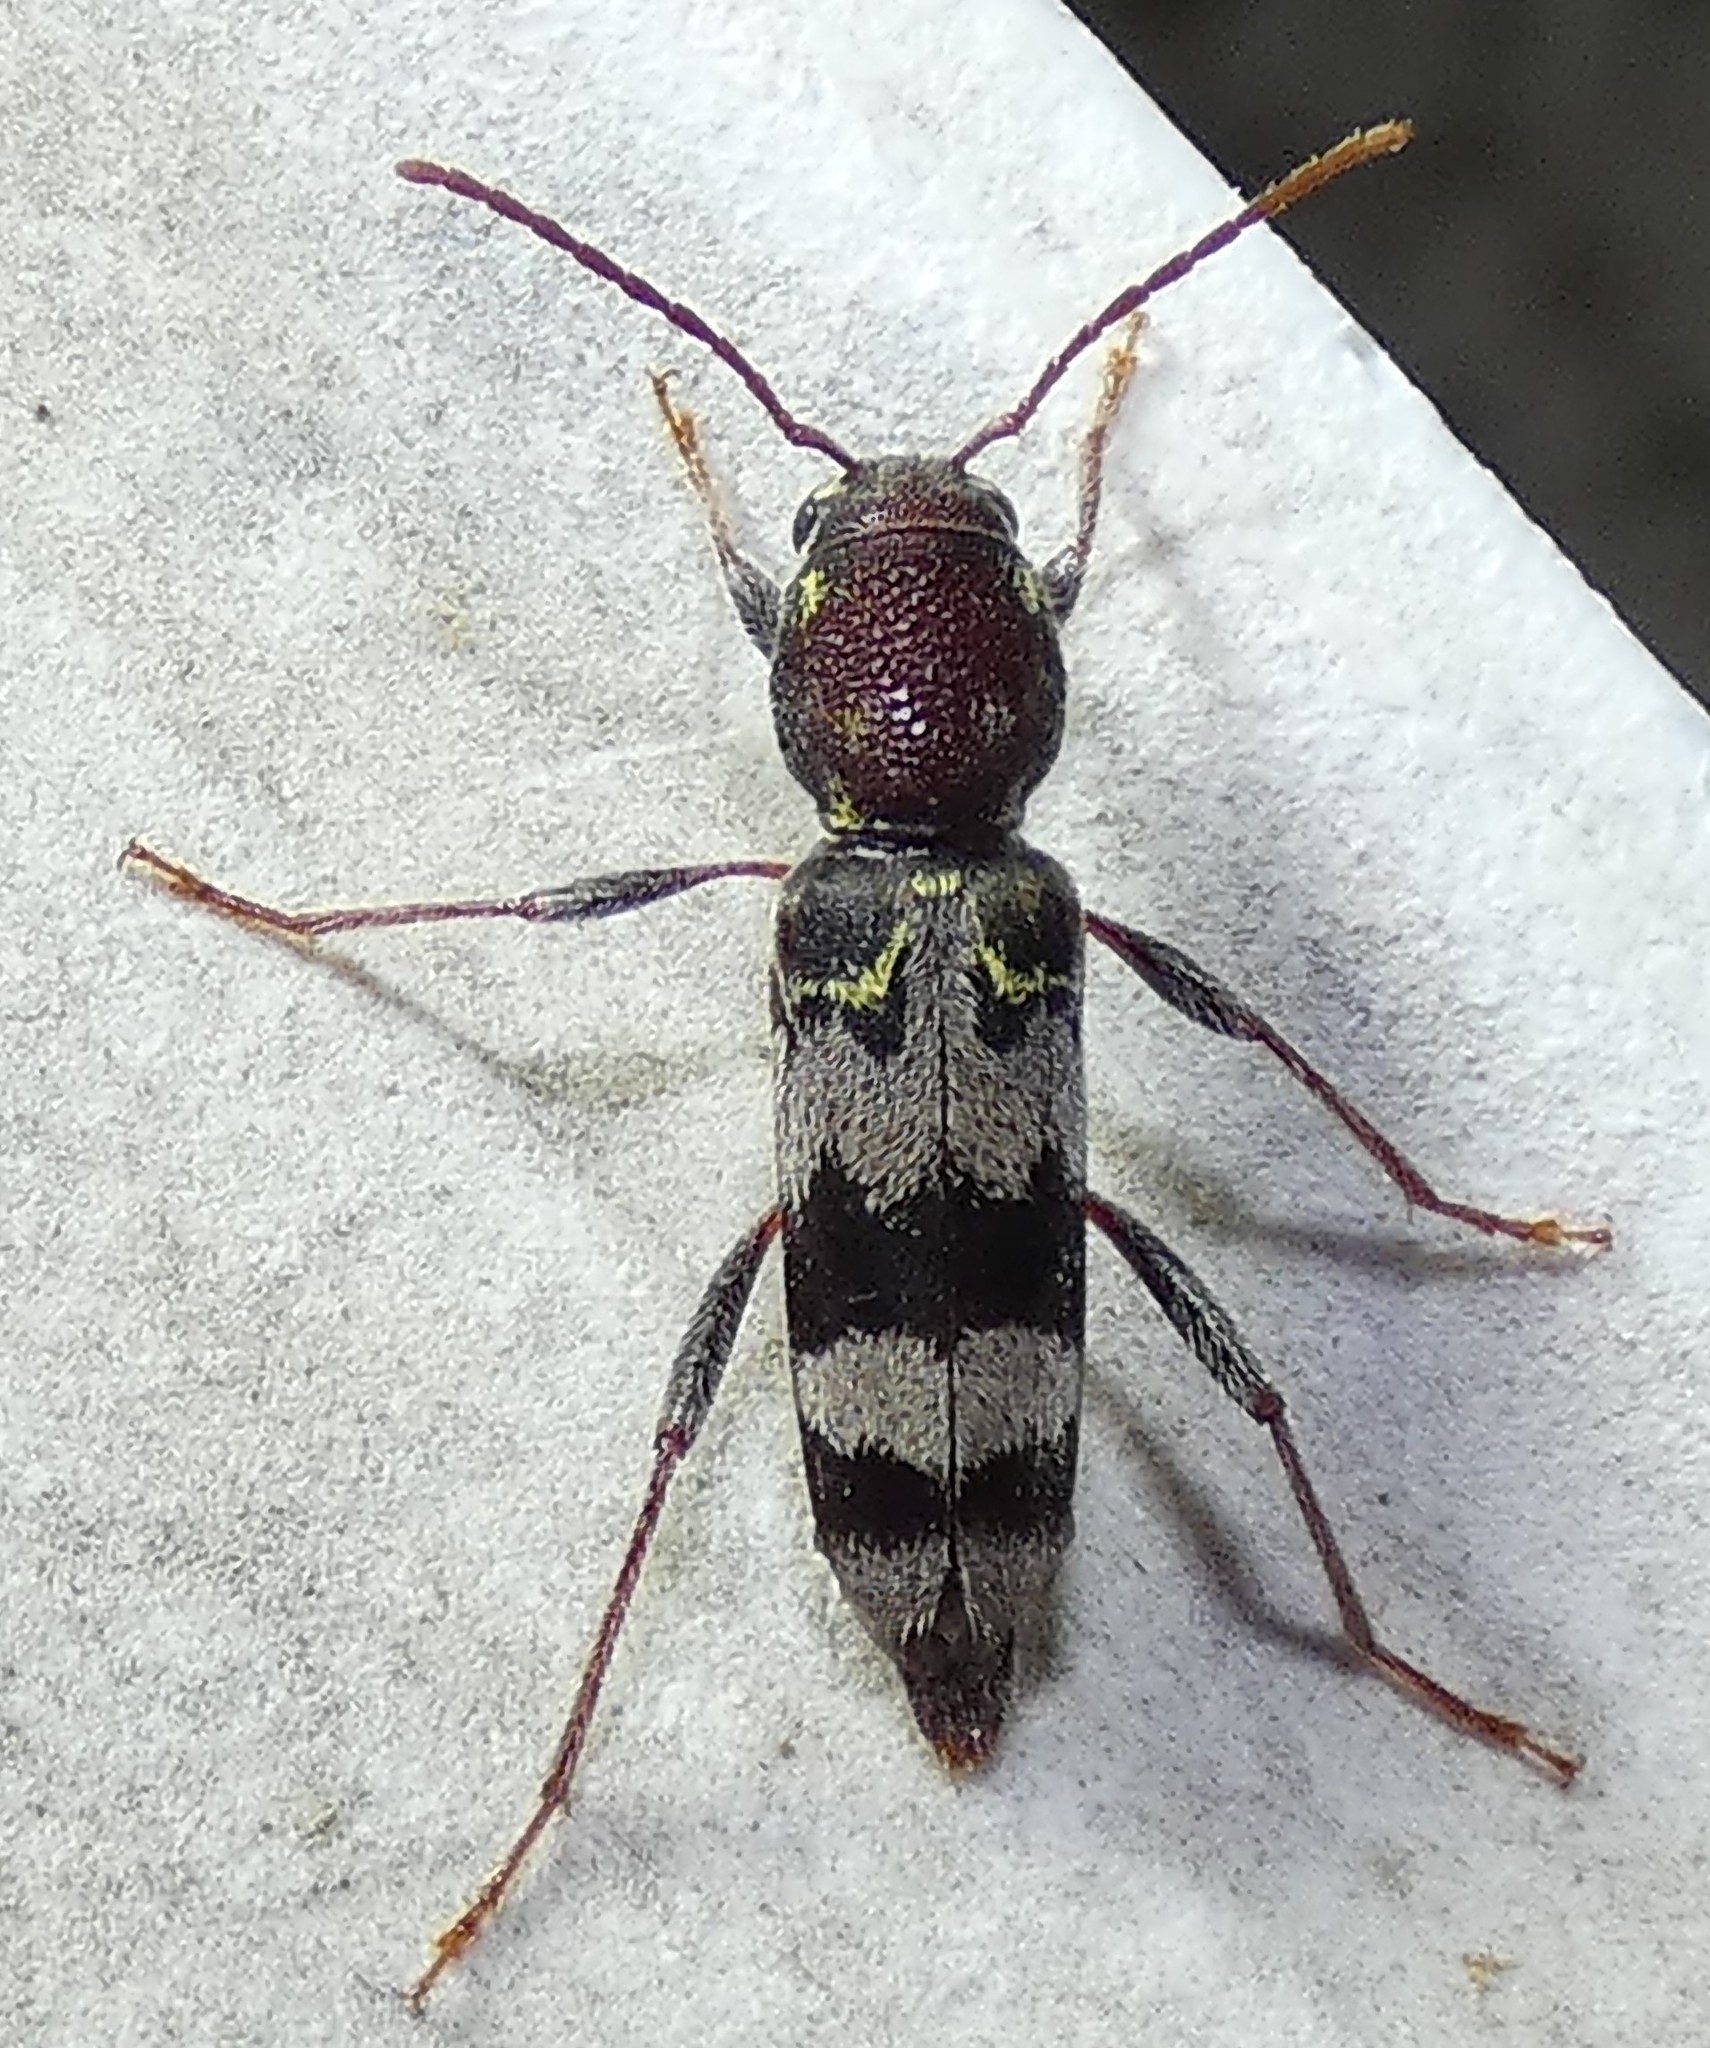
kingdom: Animalia
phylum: Arthropoda
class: Insecta
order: Coleoptera
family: Cerambycidae
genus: Xylotrechus
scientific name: Xylotrechus colonus
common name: Long-horned beetle
